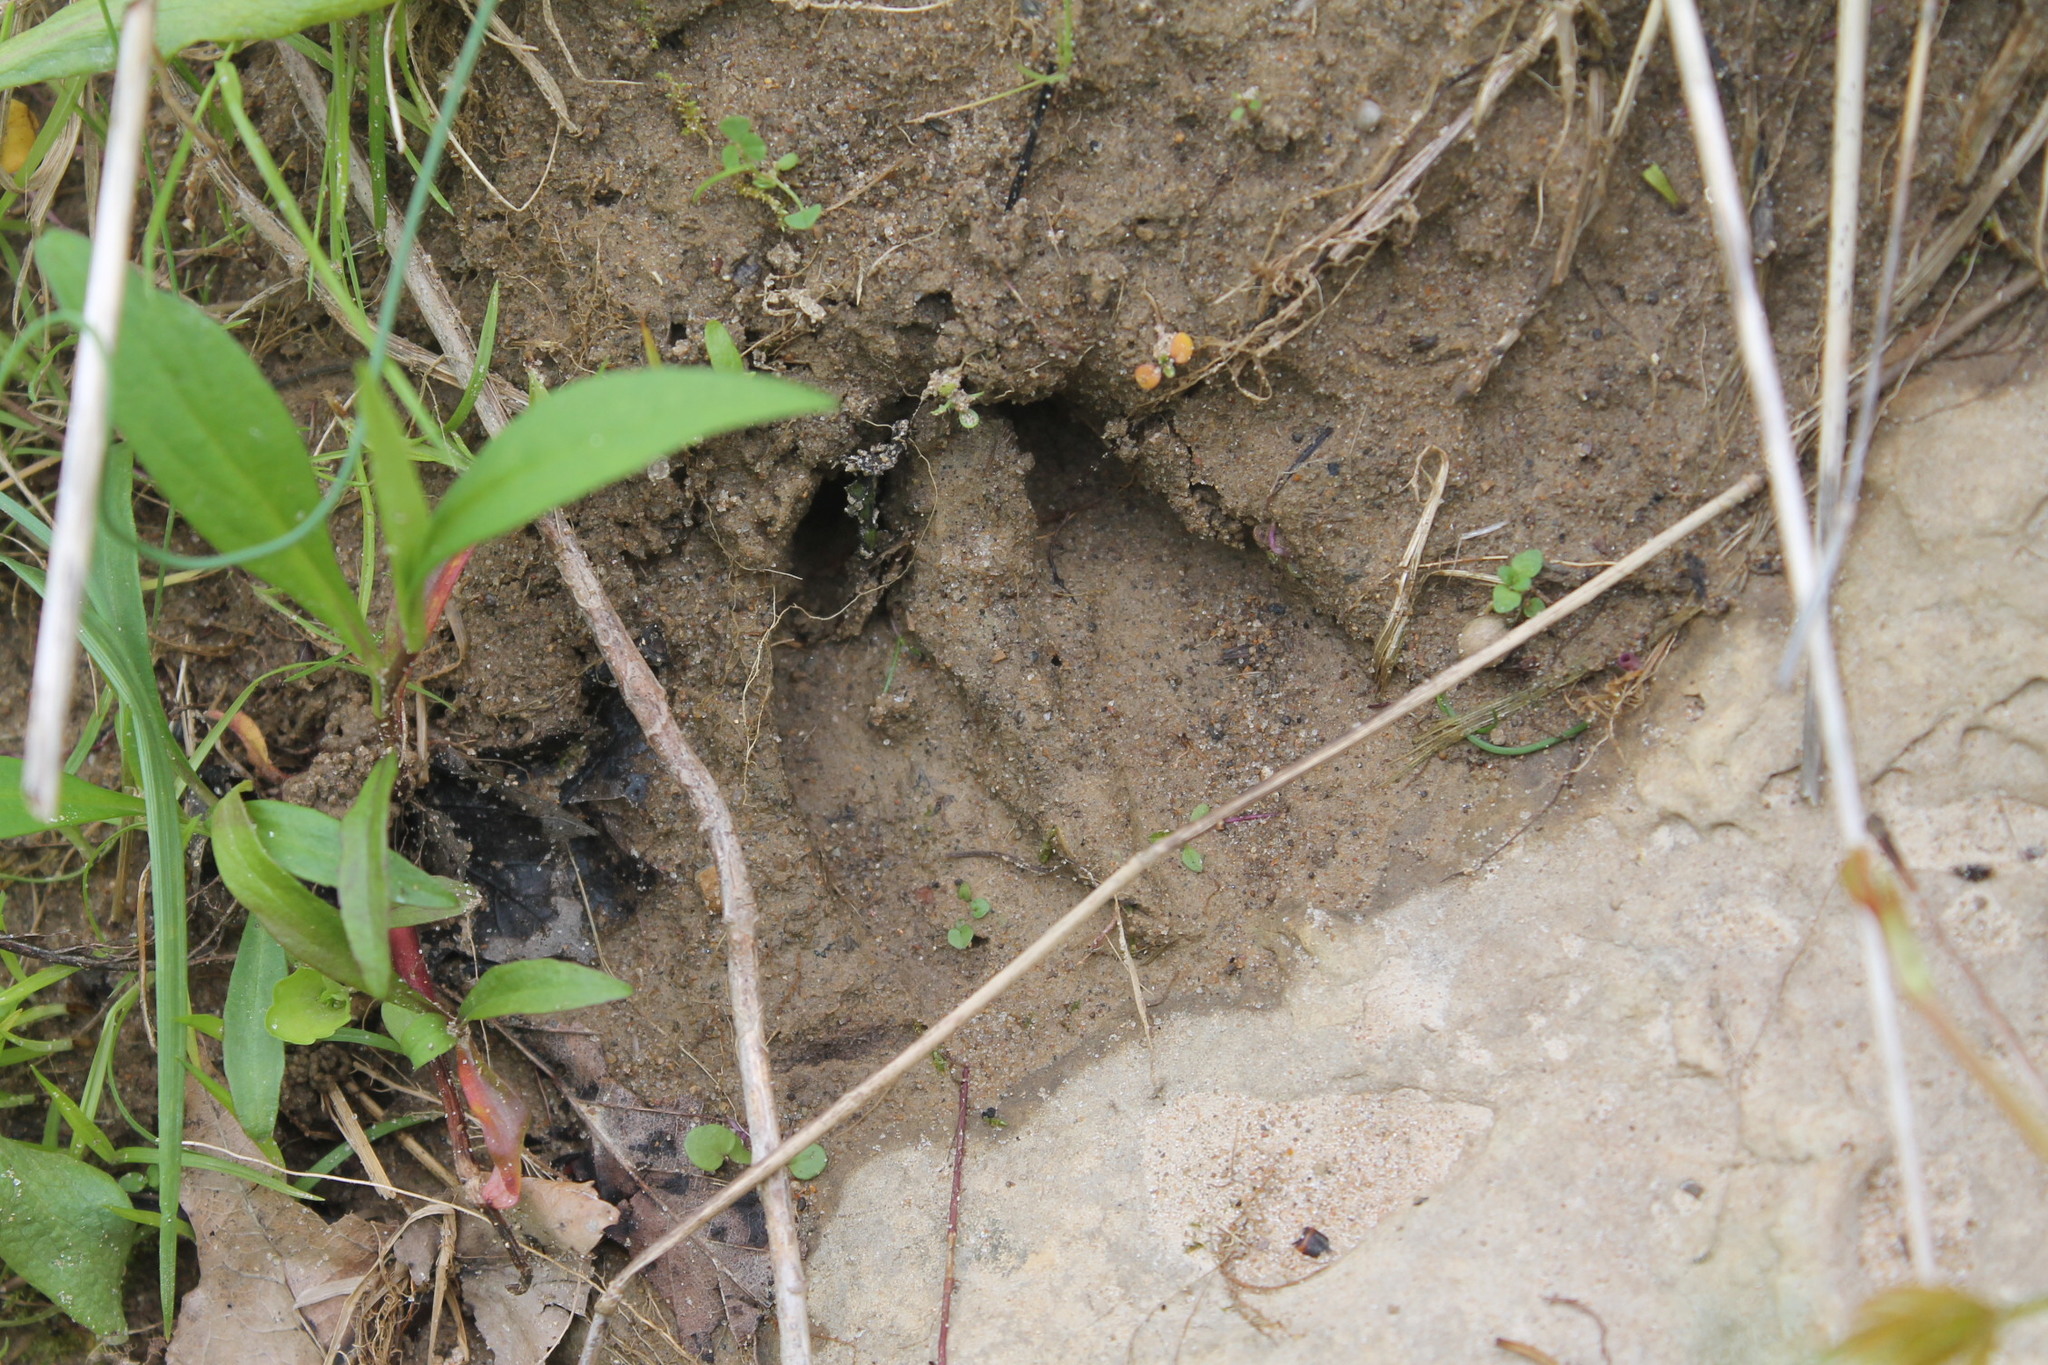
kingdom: Animalia
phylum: Chordata
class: Mammalia
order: Artiodactyla
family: Cervidae
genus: Odocoileus
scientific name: Odocoileus virginianus
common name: White-tailed deer
